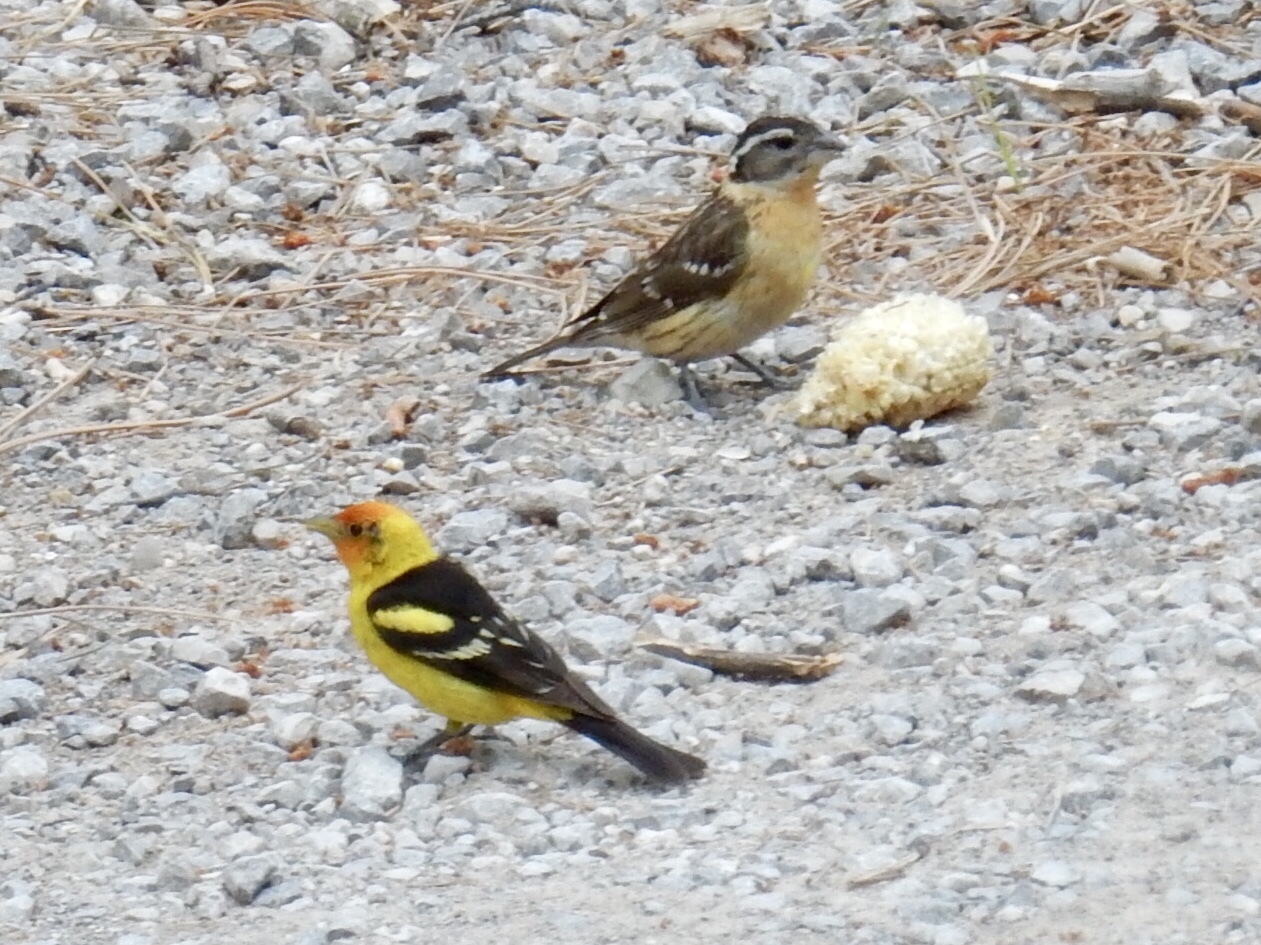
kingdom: Animalia
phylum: Chordata
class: Aves
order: Passeriformes
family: Cardinalidae
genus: Piranga
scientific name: Piranga ludoviciana
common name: Western tanager
